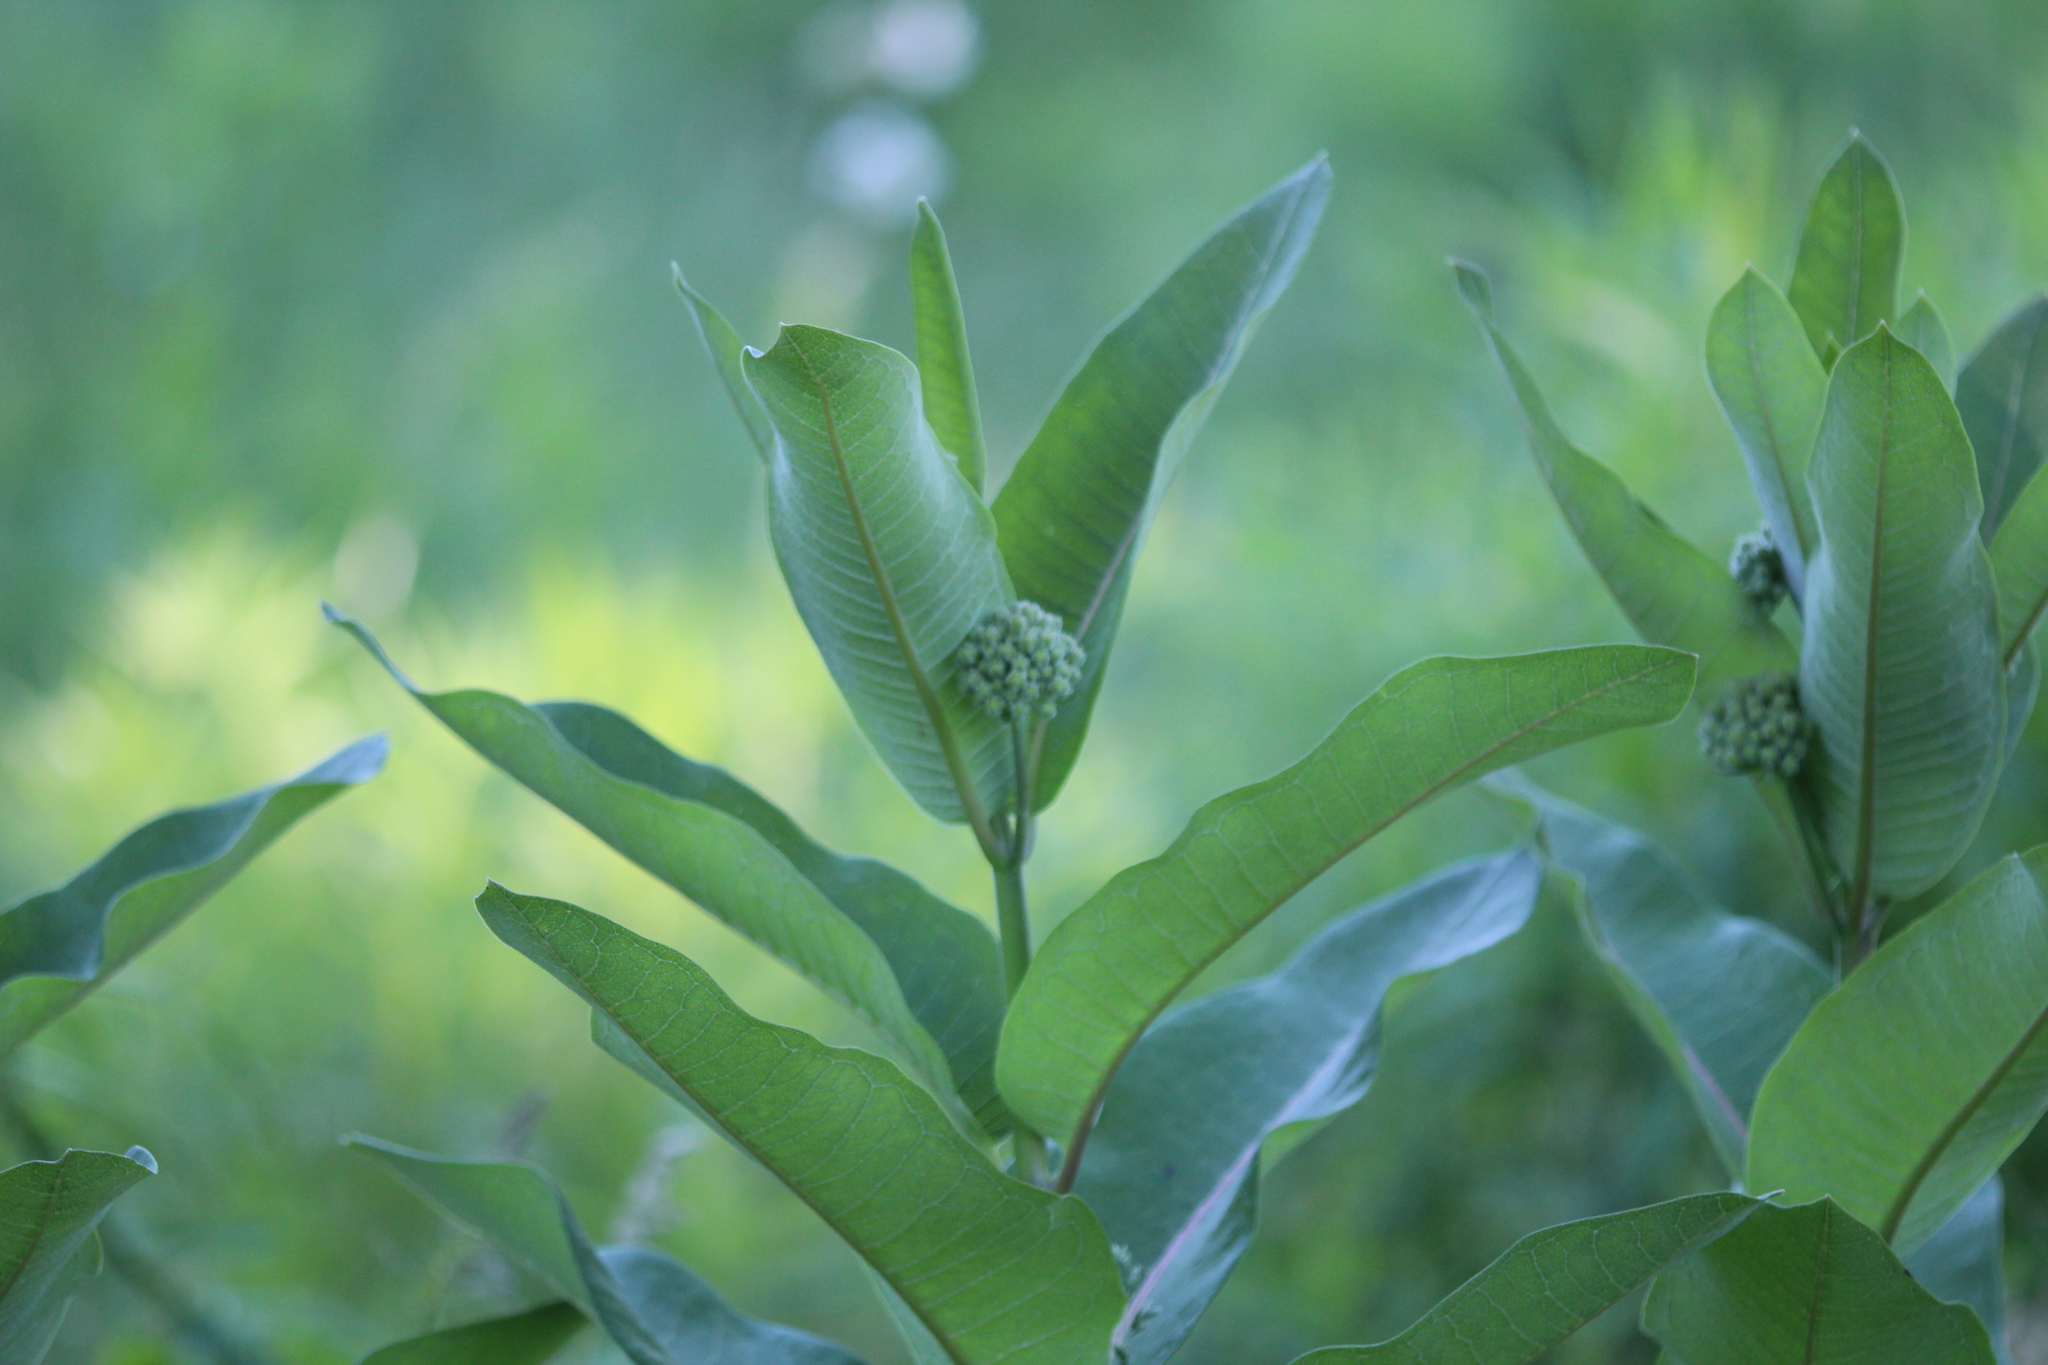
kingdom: Plantae
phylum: Tracheophyta
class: Magnoliopsida
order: Gentianales
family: Apocynaceae
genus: Asclepias
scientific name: Asclepias syriaca
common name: Common milkweed
